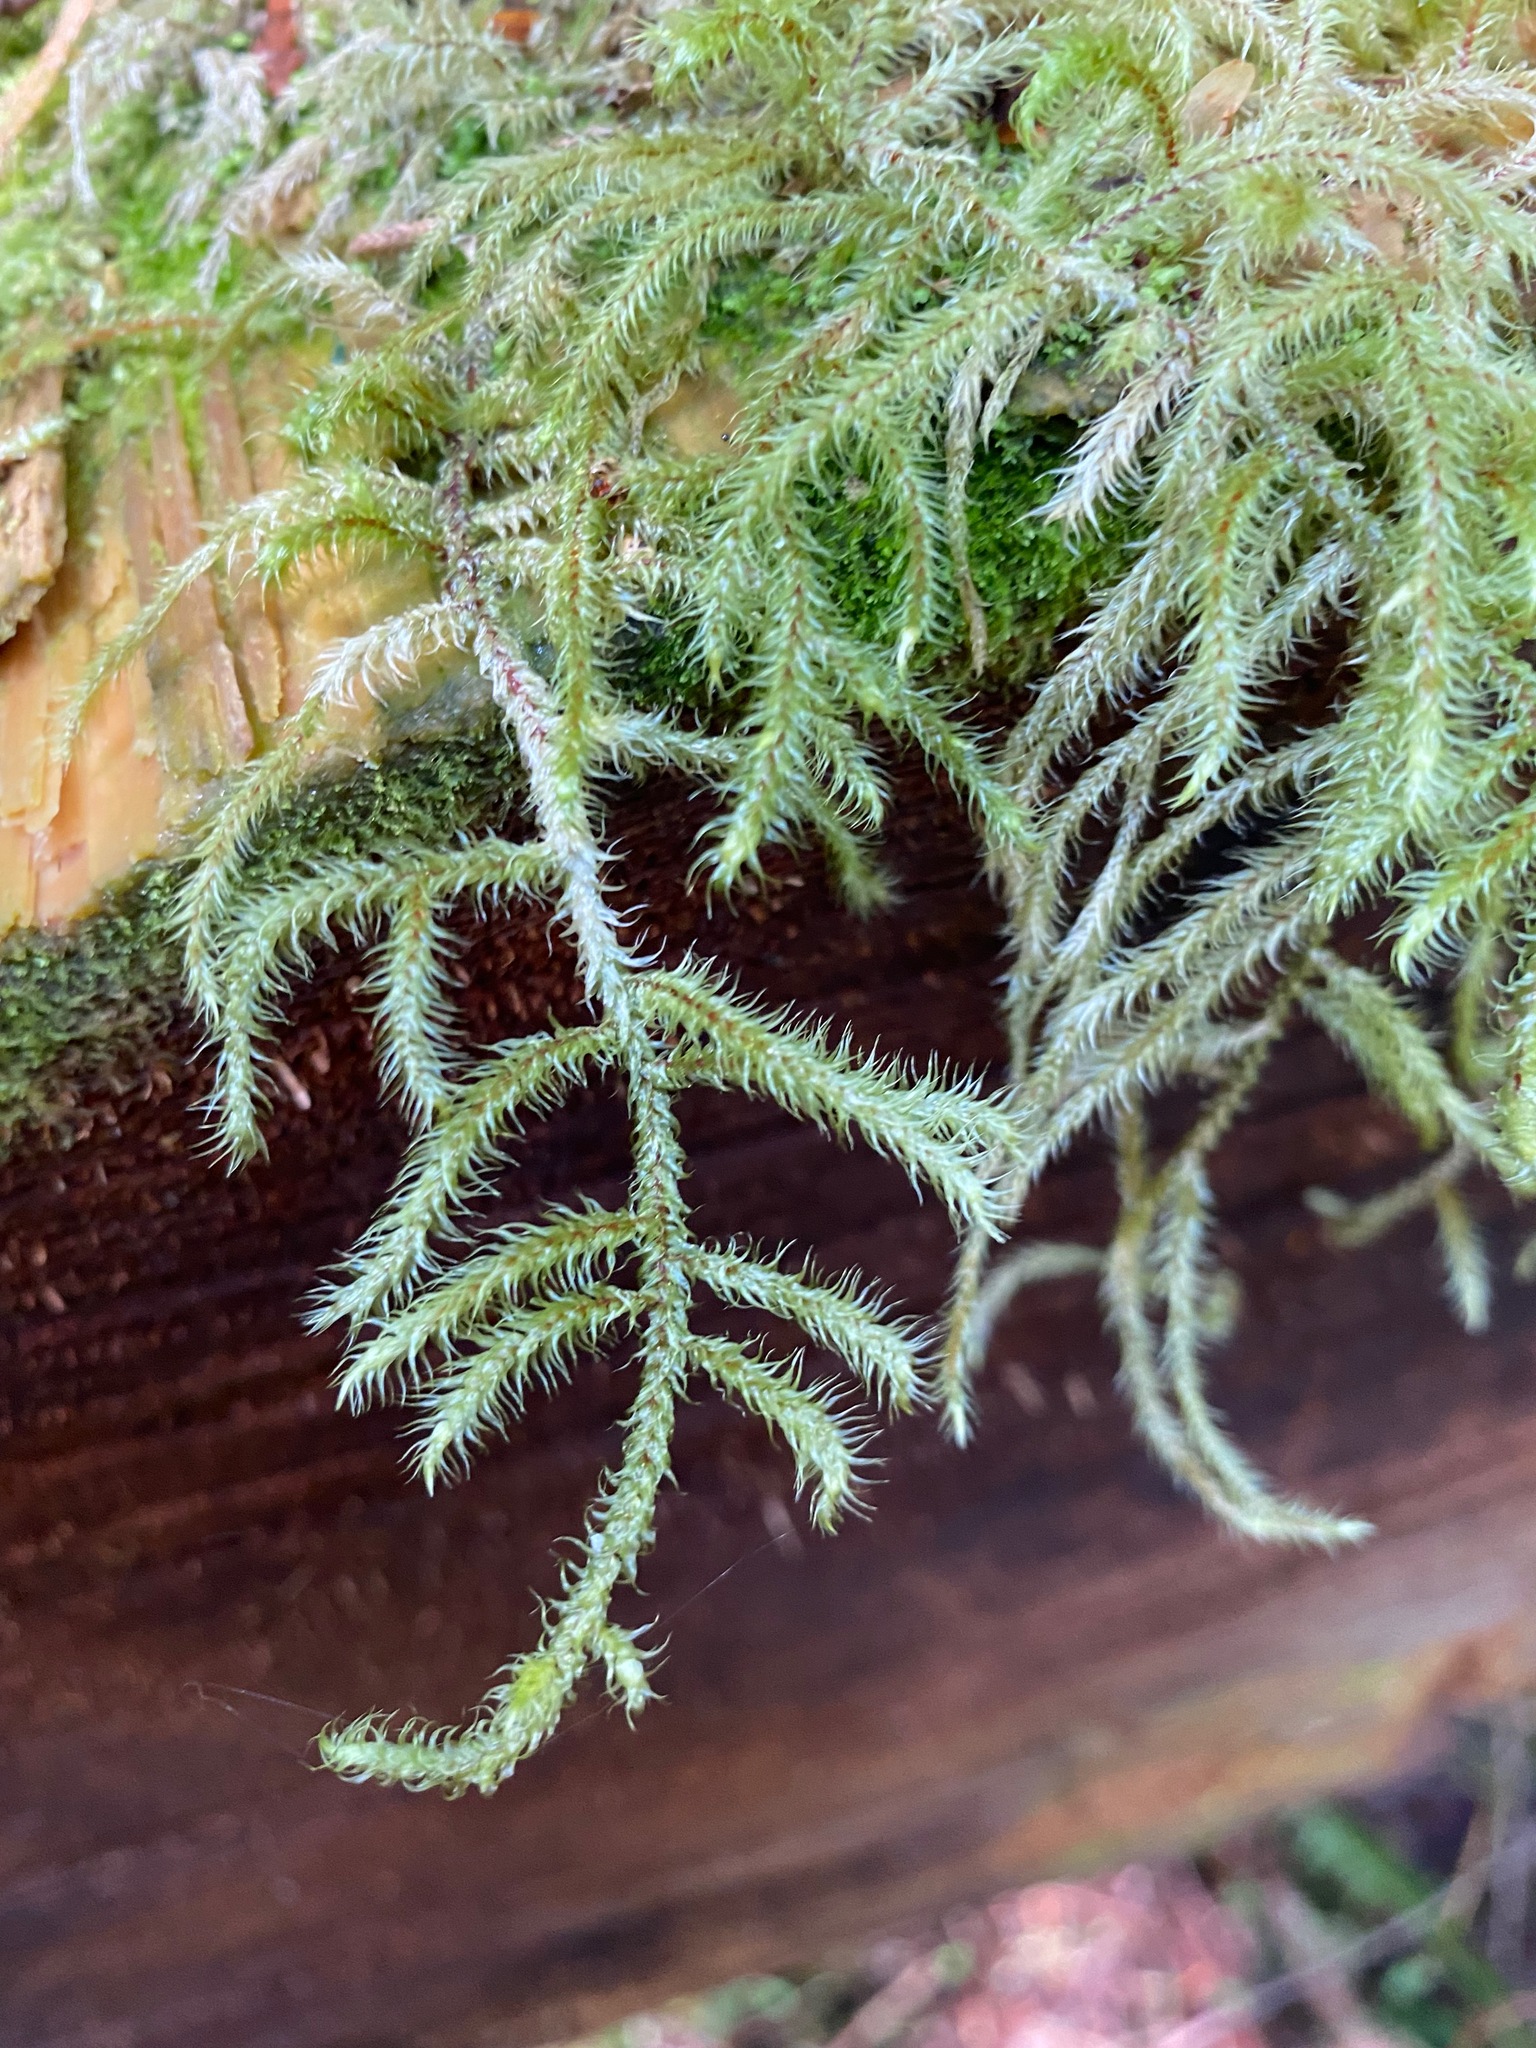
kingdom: Plantae
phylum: Bryophyta
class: Bryopsida
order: Hypnales
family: Hylocomiaceae
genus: Rhytidiadelphus
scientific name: Rhytidiadelphus loreus
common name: Lanky moss
